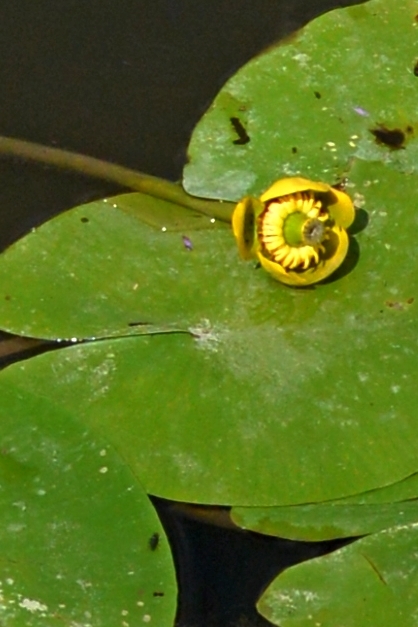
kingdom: Plantae
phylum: Tracheophyta
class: Magnoliopsida
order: Nymphaeales
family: Nymphaeaceae
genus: Nuphar
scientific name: Nuphar lutea
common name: Yellow water-lily
